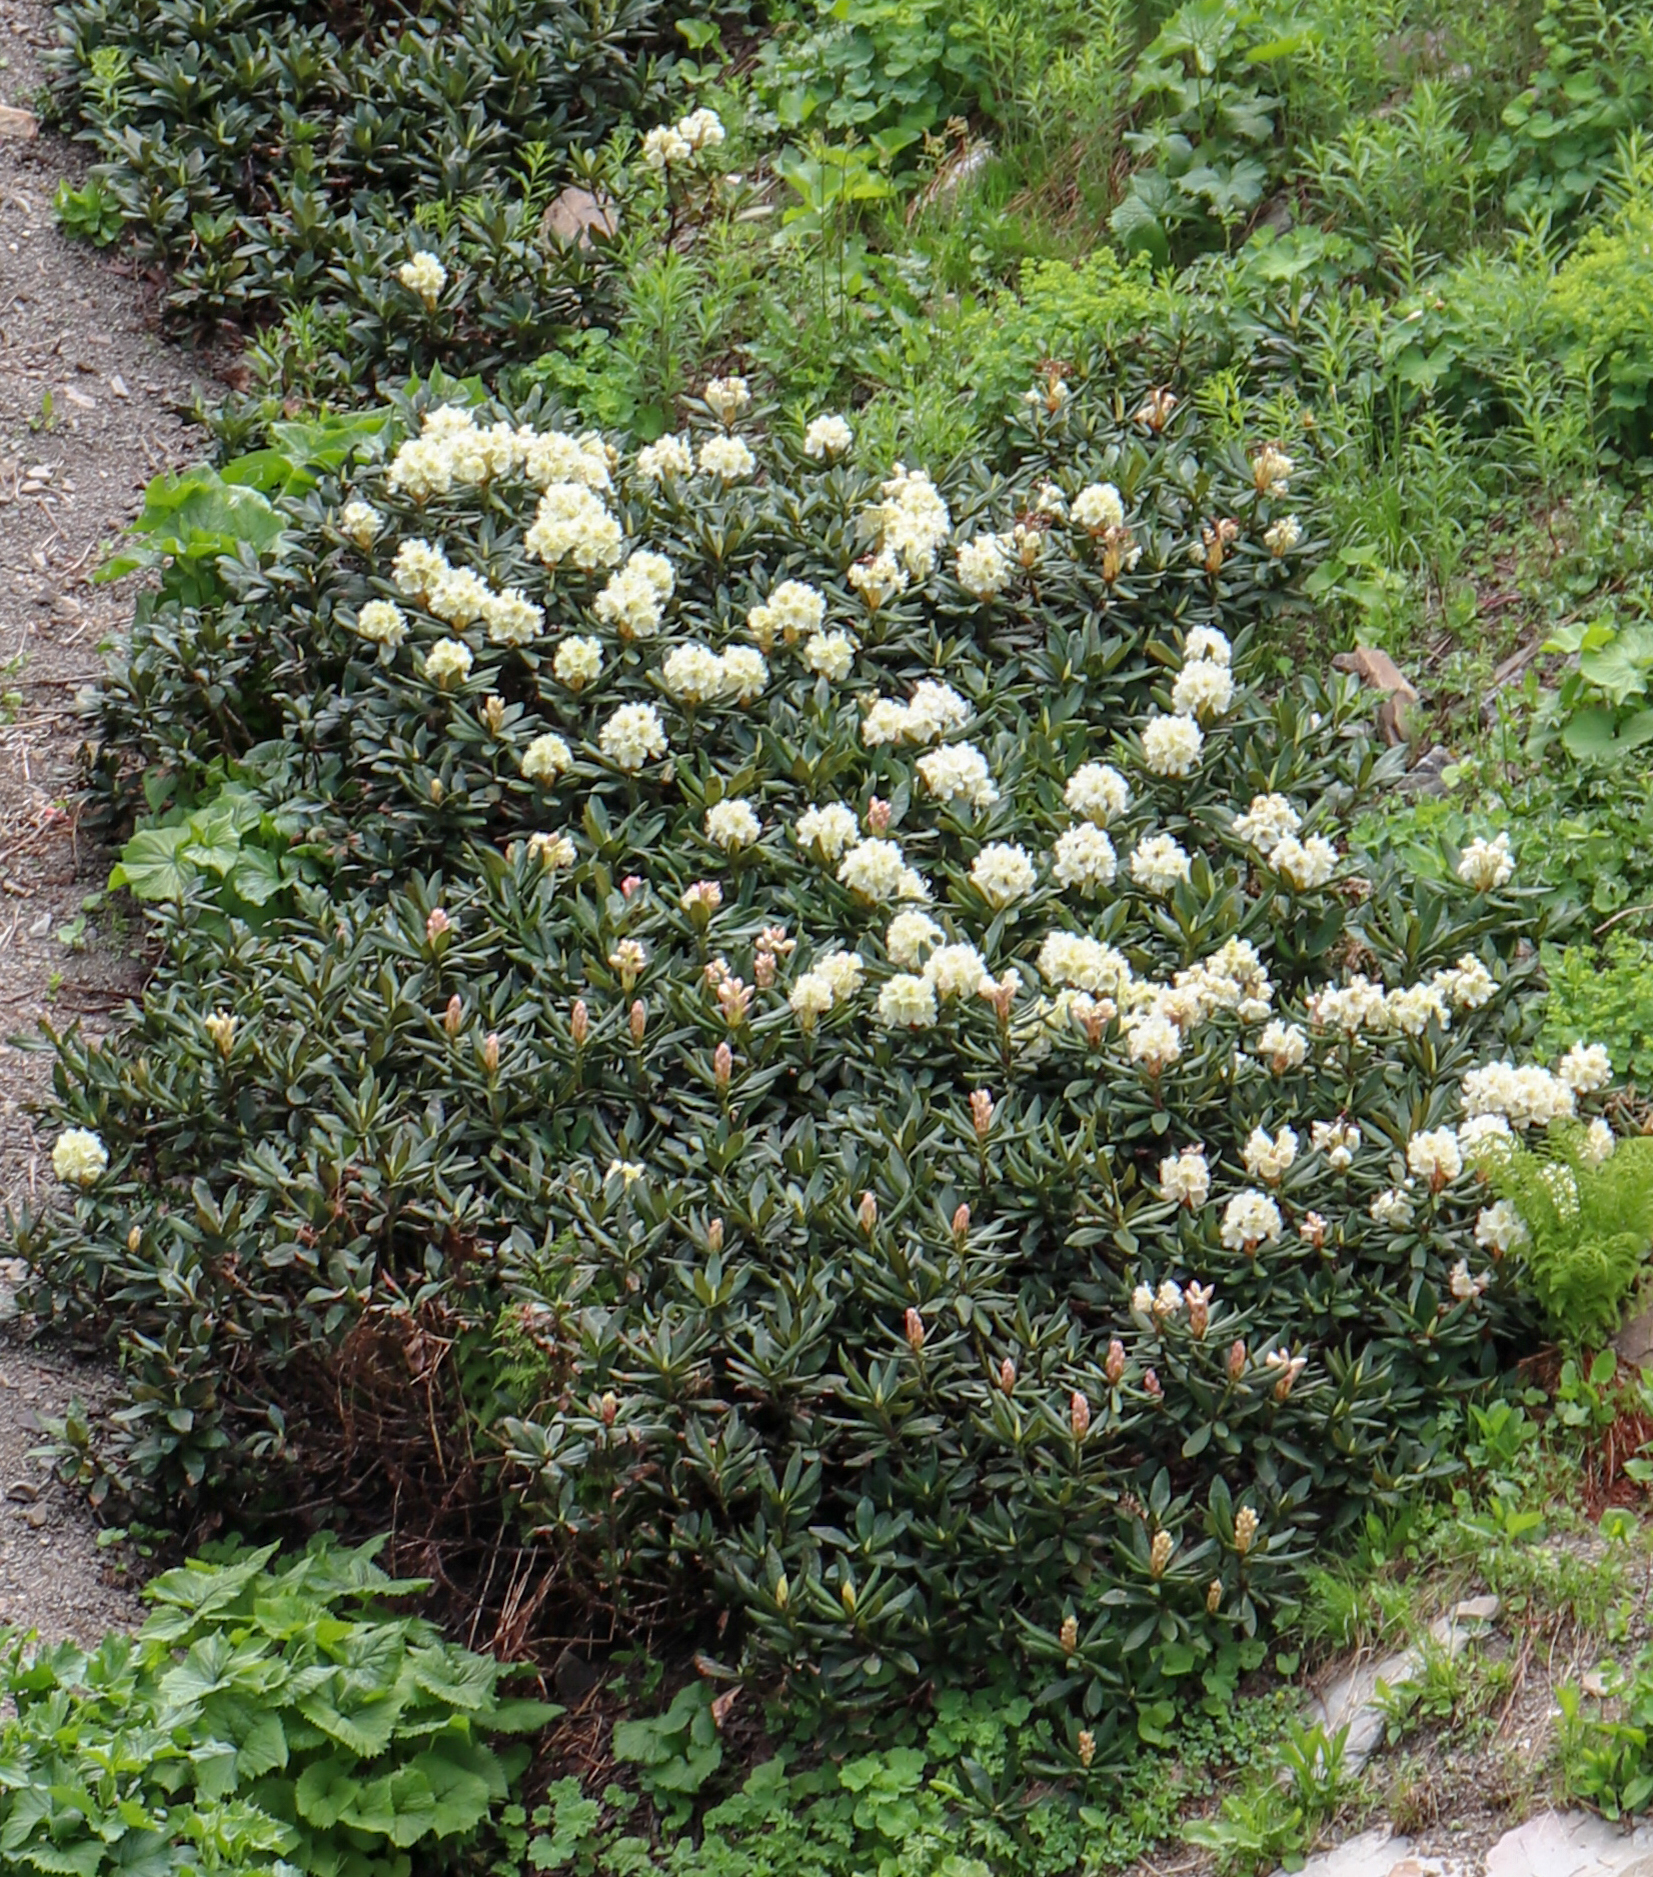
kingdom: Plantae
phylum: Tracheophyta
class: Magnoliopsida
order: Ericales
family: Ericaceae
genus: Rhododendron
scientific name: Rhododendron caucasicum
